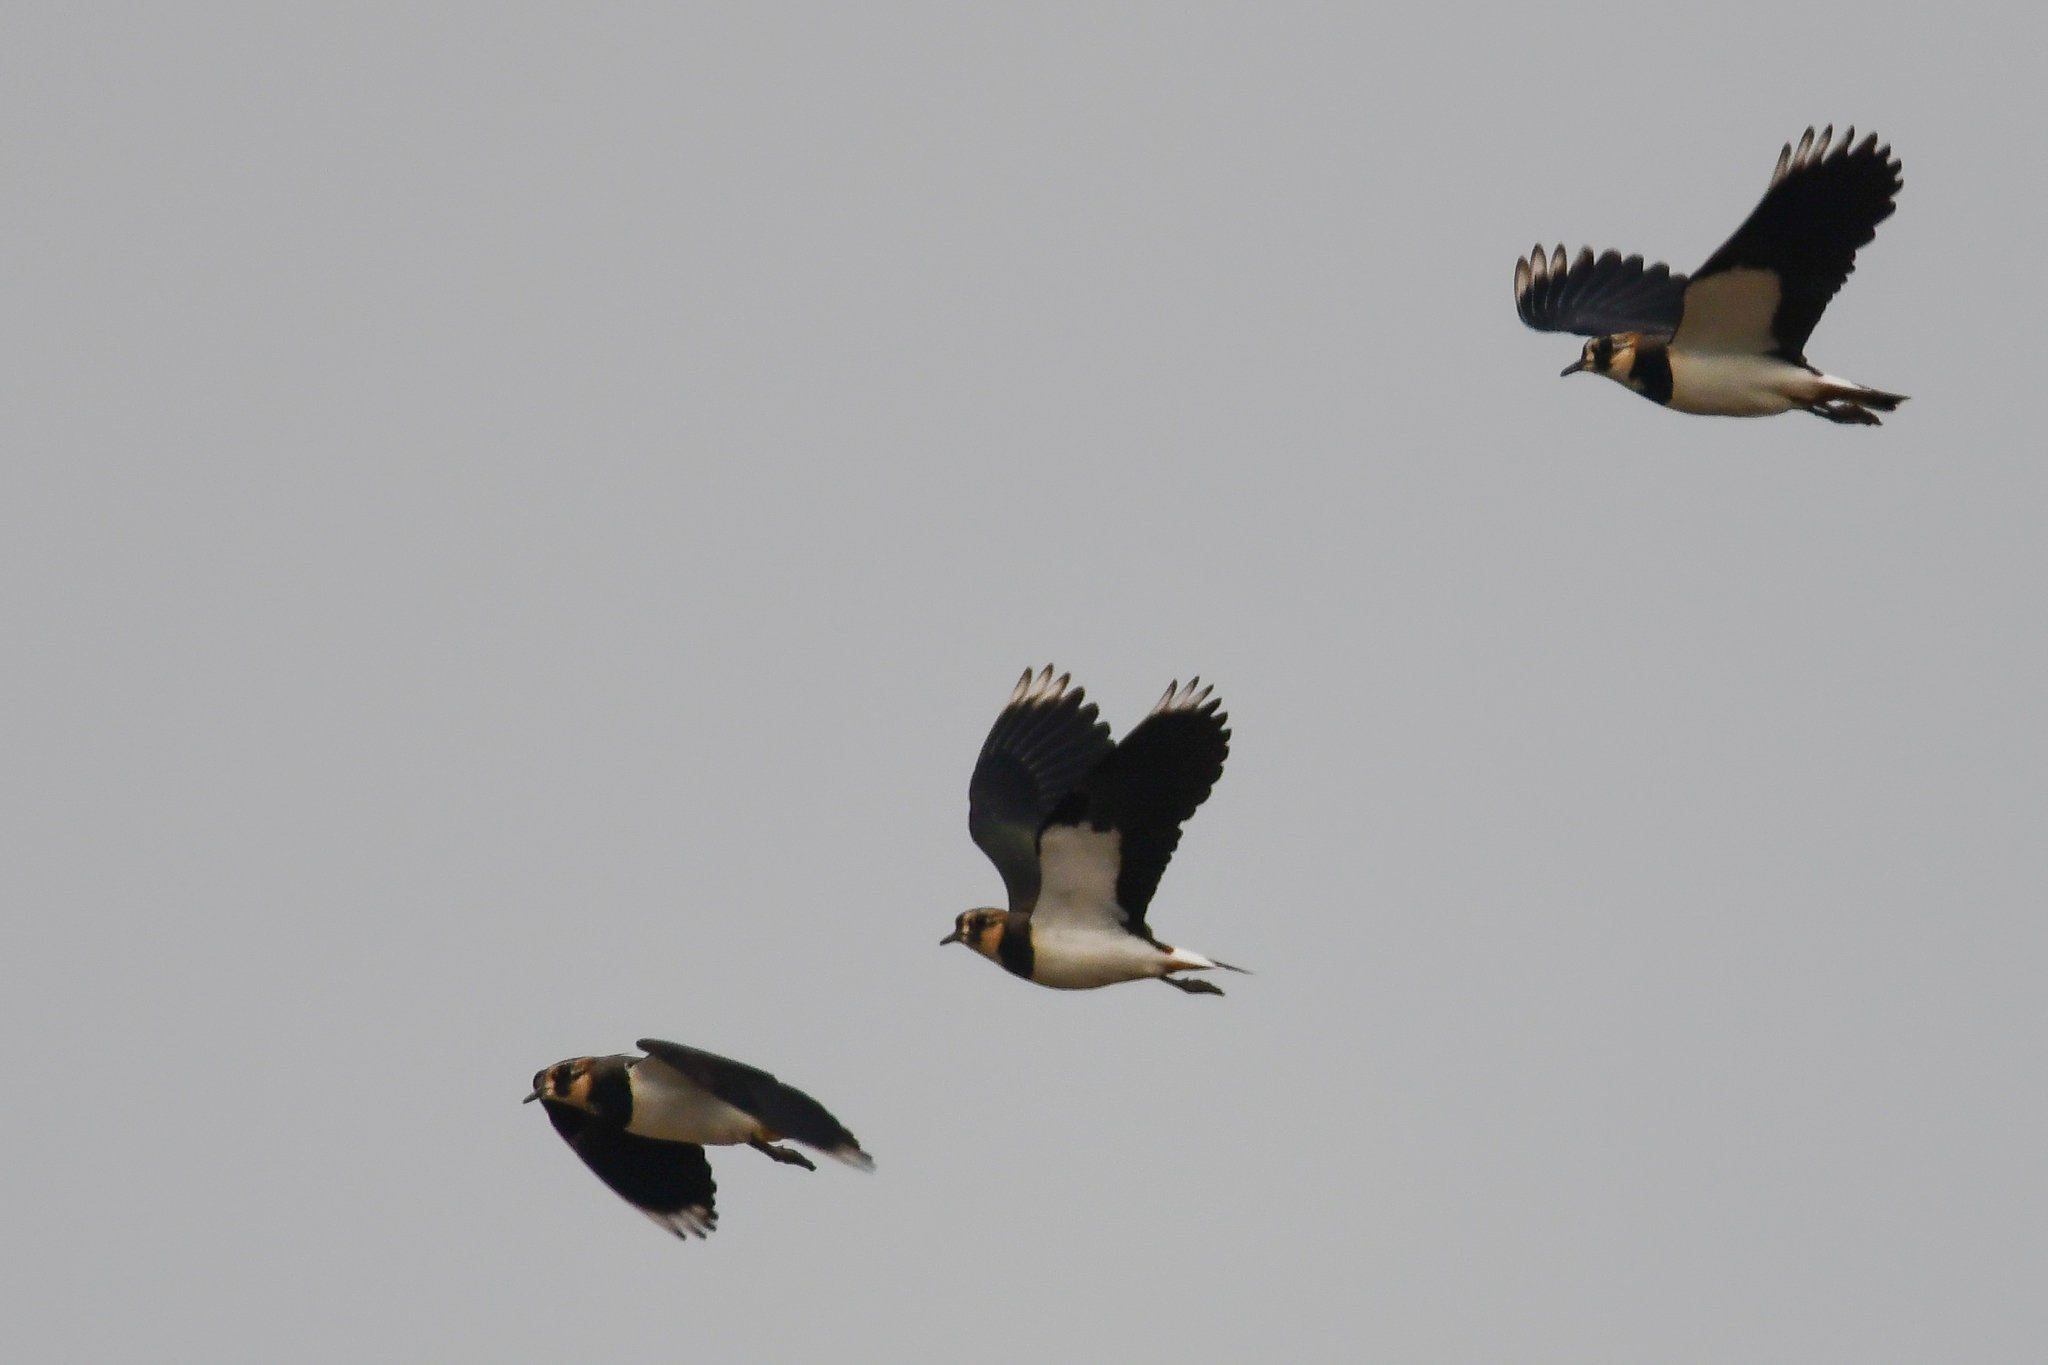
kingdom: Animalia
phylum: Chordata
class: Aves
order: Charadriiformes
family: Charadriidae
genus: Vanellus
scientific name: Vanellus vanellus
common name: Northern lapwing
